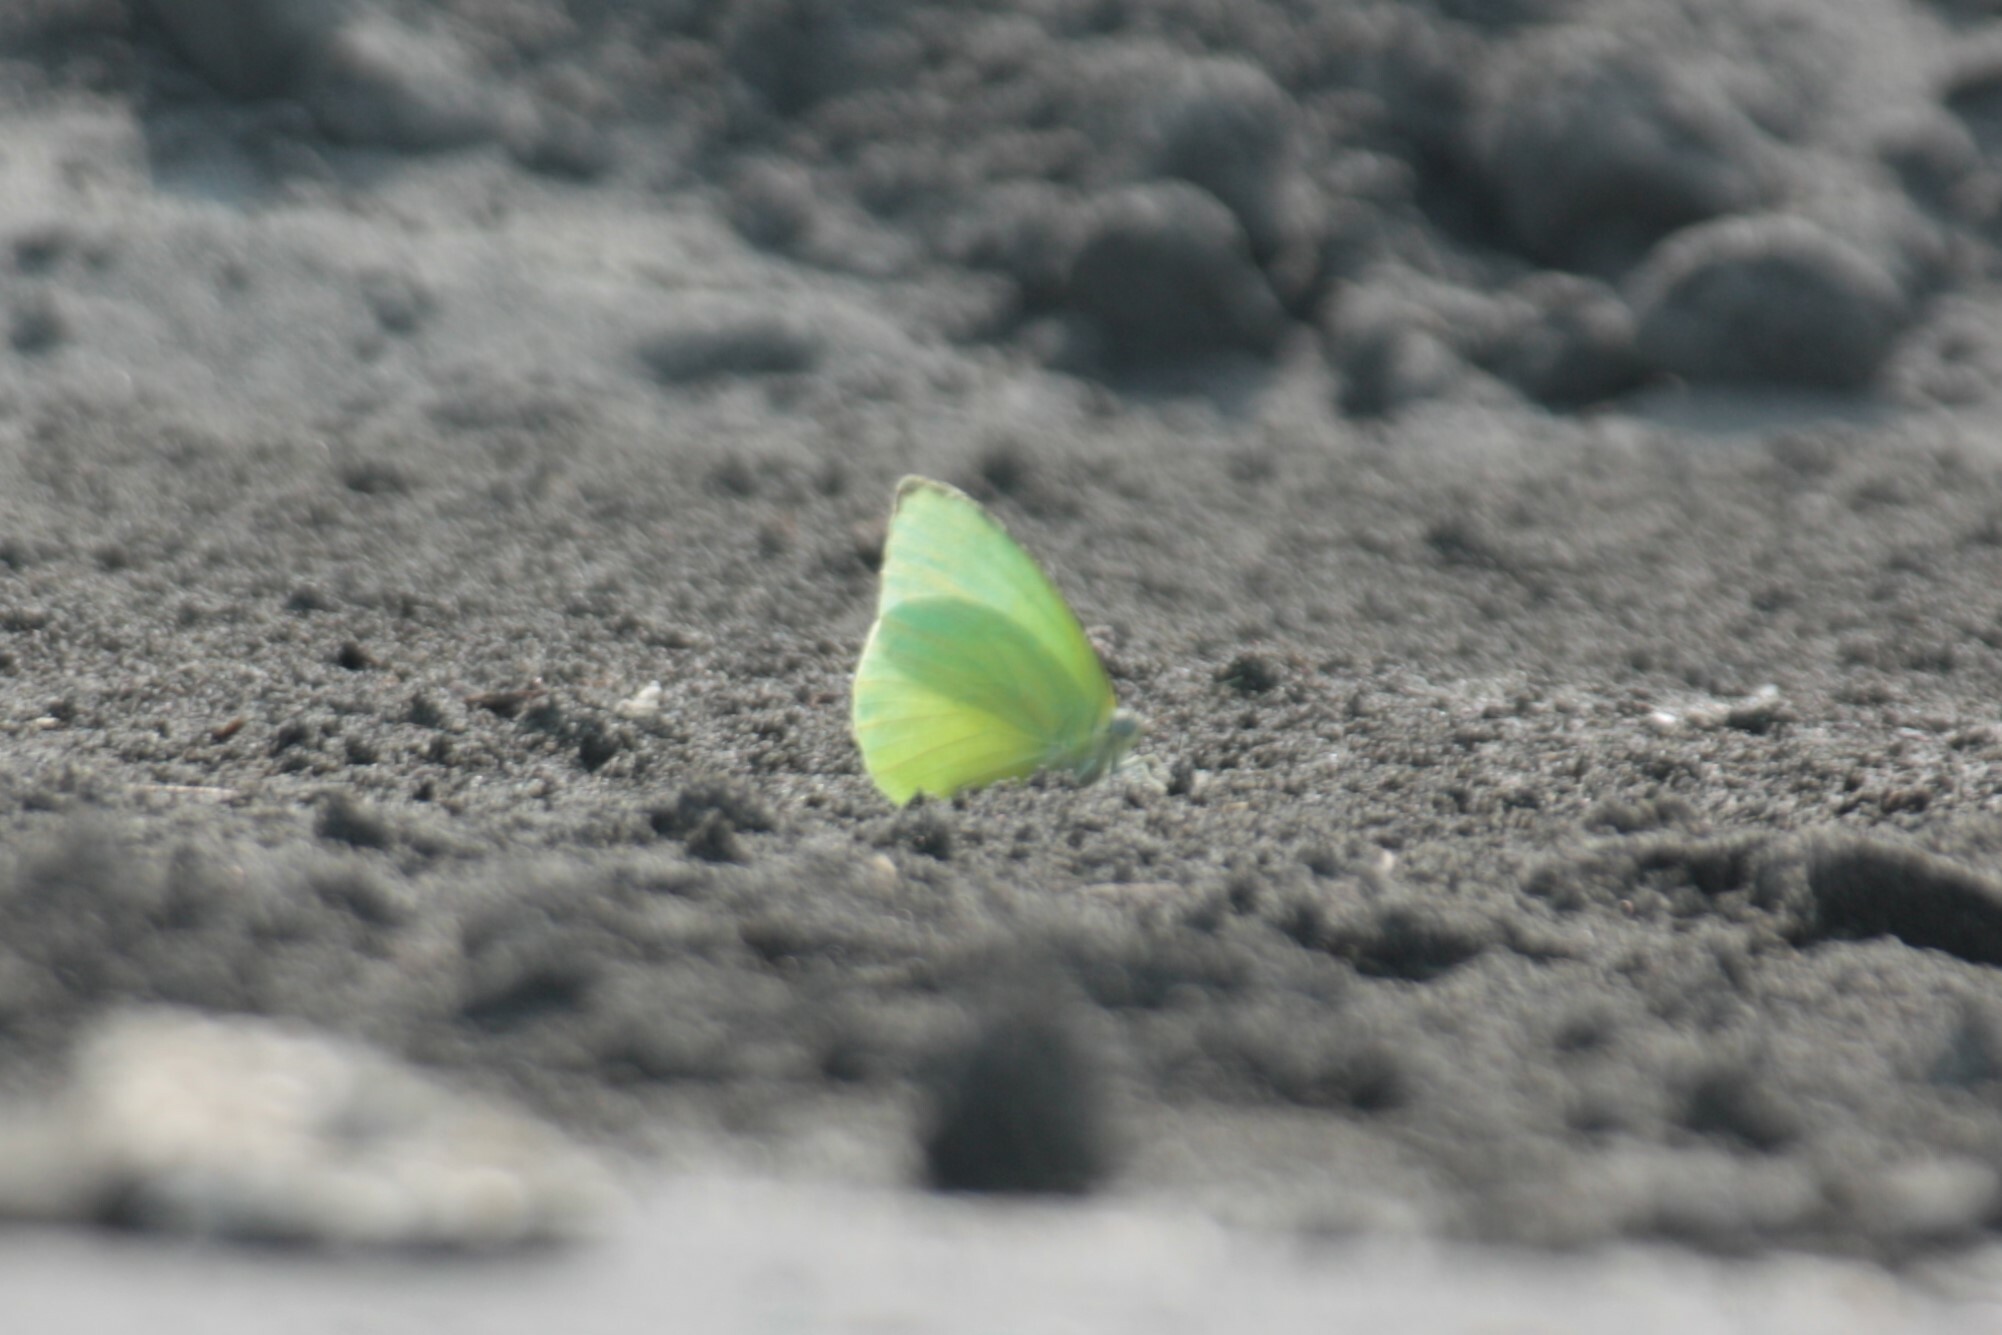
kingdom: Animalia
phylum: Arthropoda
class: Insecta
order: Lepidoptera
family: Pieridae
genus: Catopsilia
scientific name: Catopsilia pomona
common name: Common emigrant
